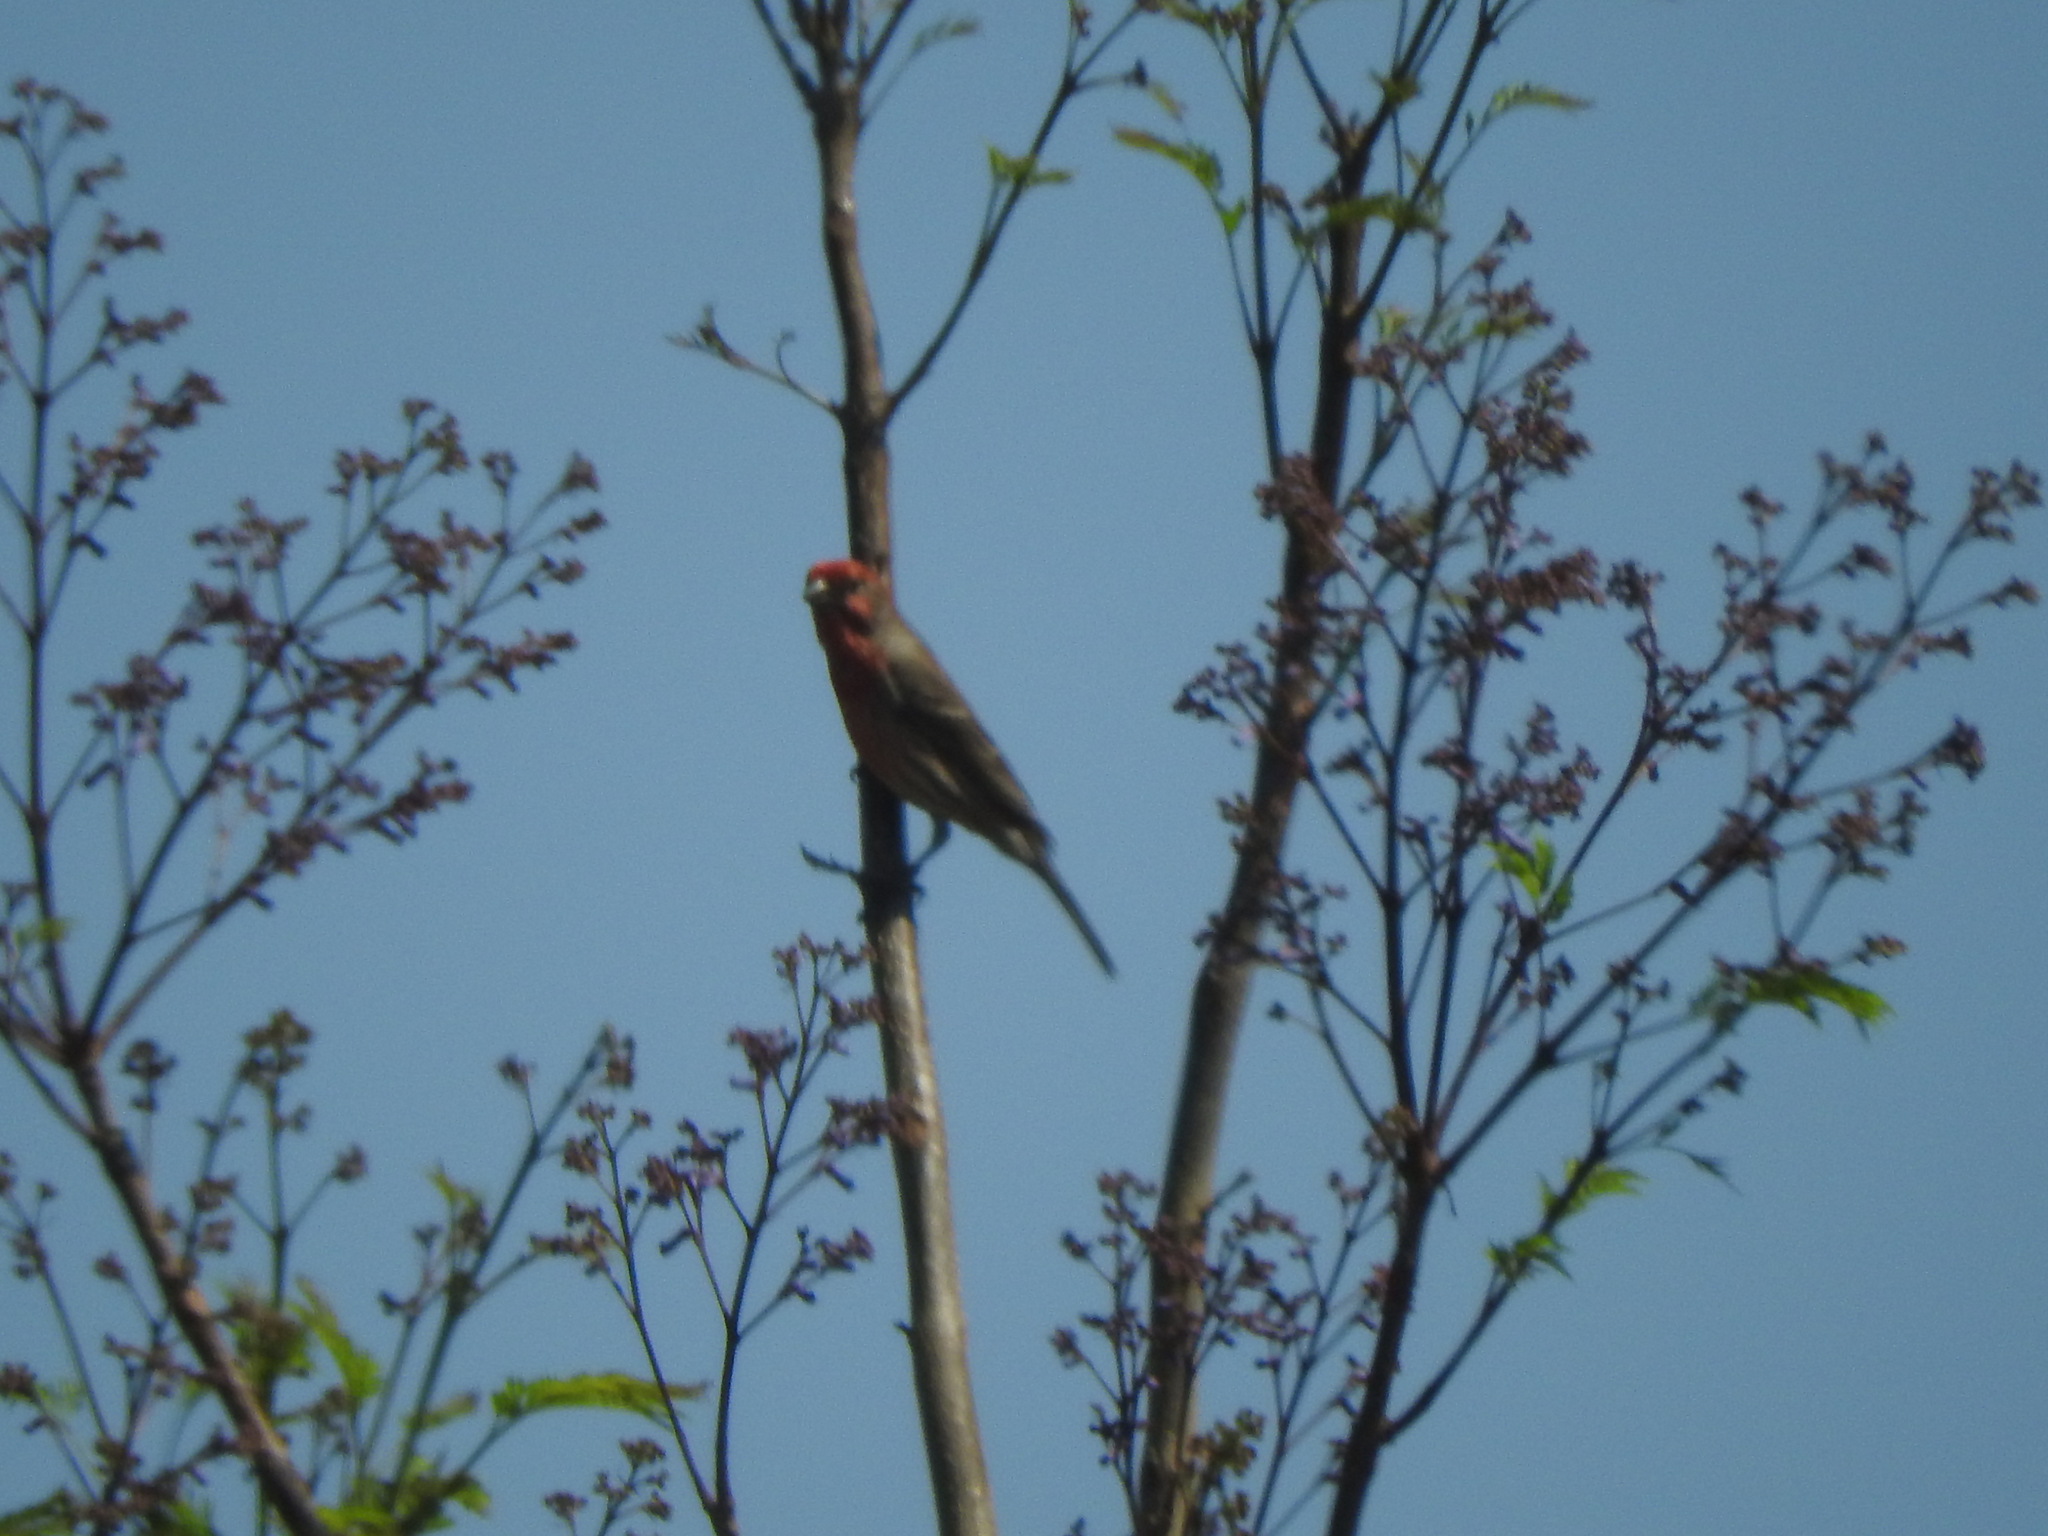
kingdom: Animalia
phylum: Chordata
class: Aves
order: Passeriformes
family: Fringillidae
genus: Haemorhous
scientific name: Haemorhous mexicanus
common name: House finch
